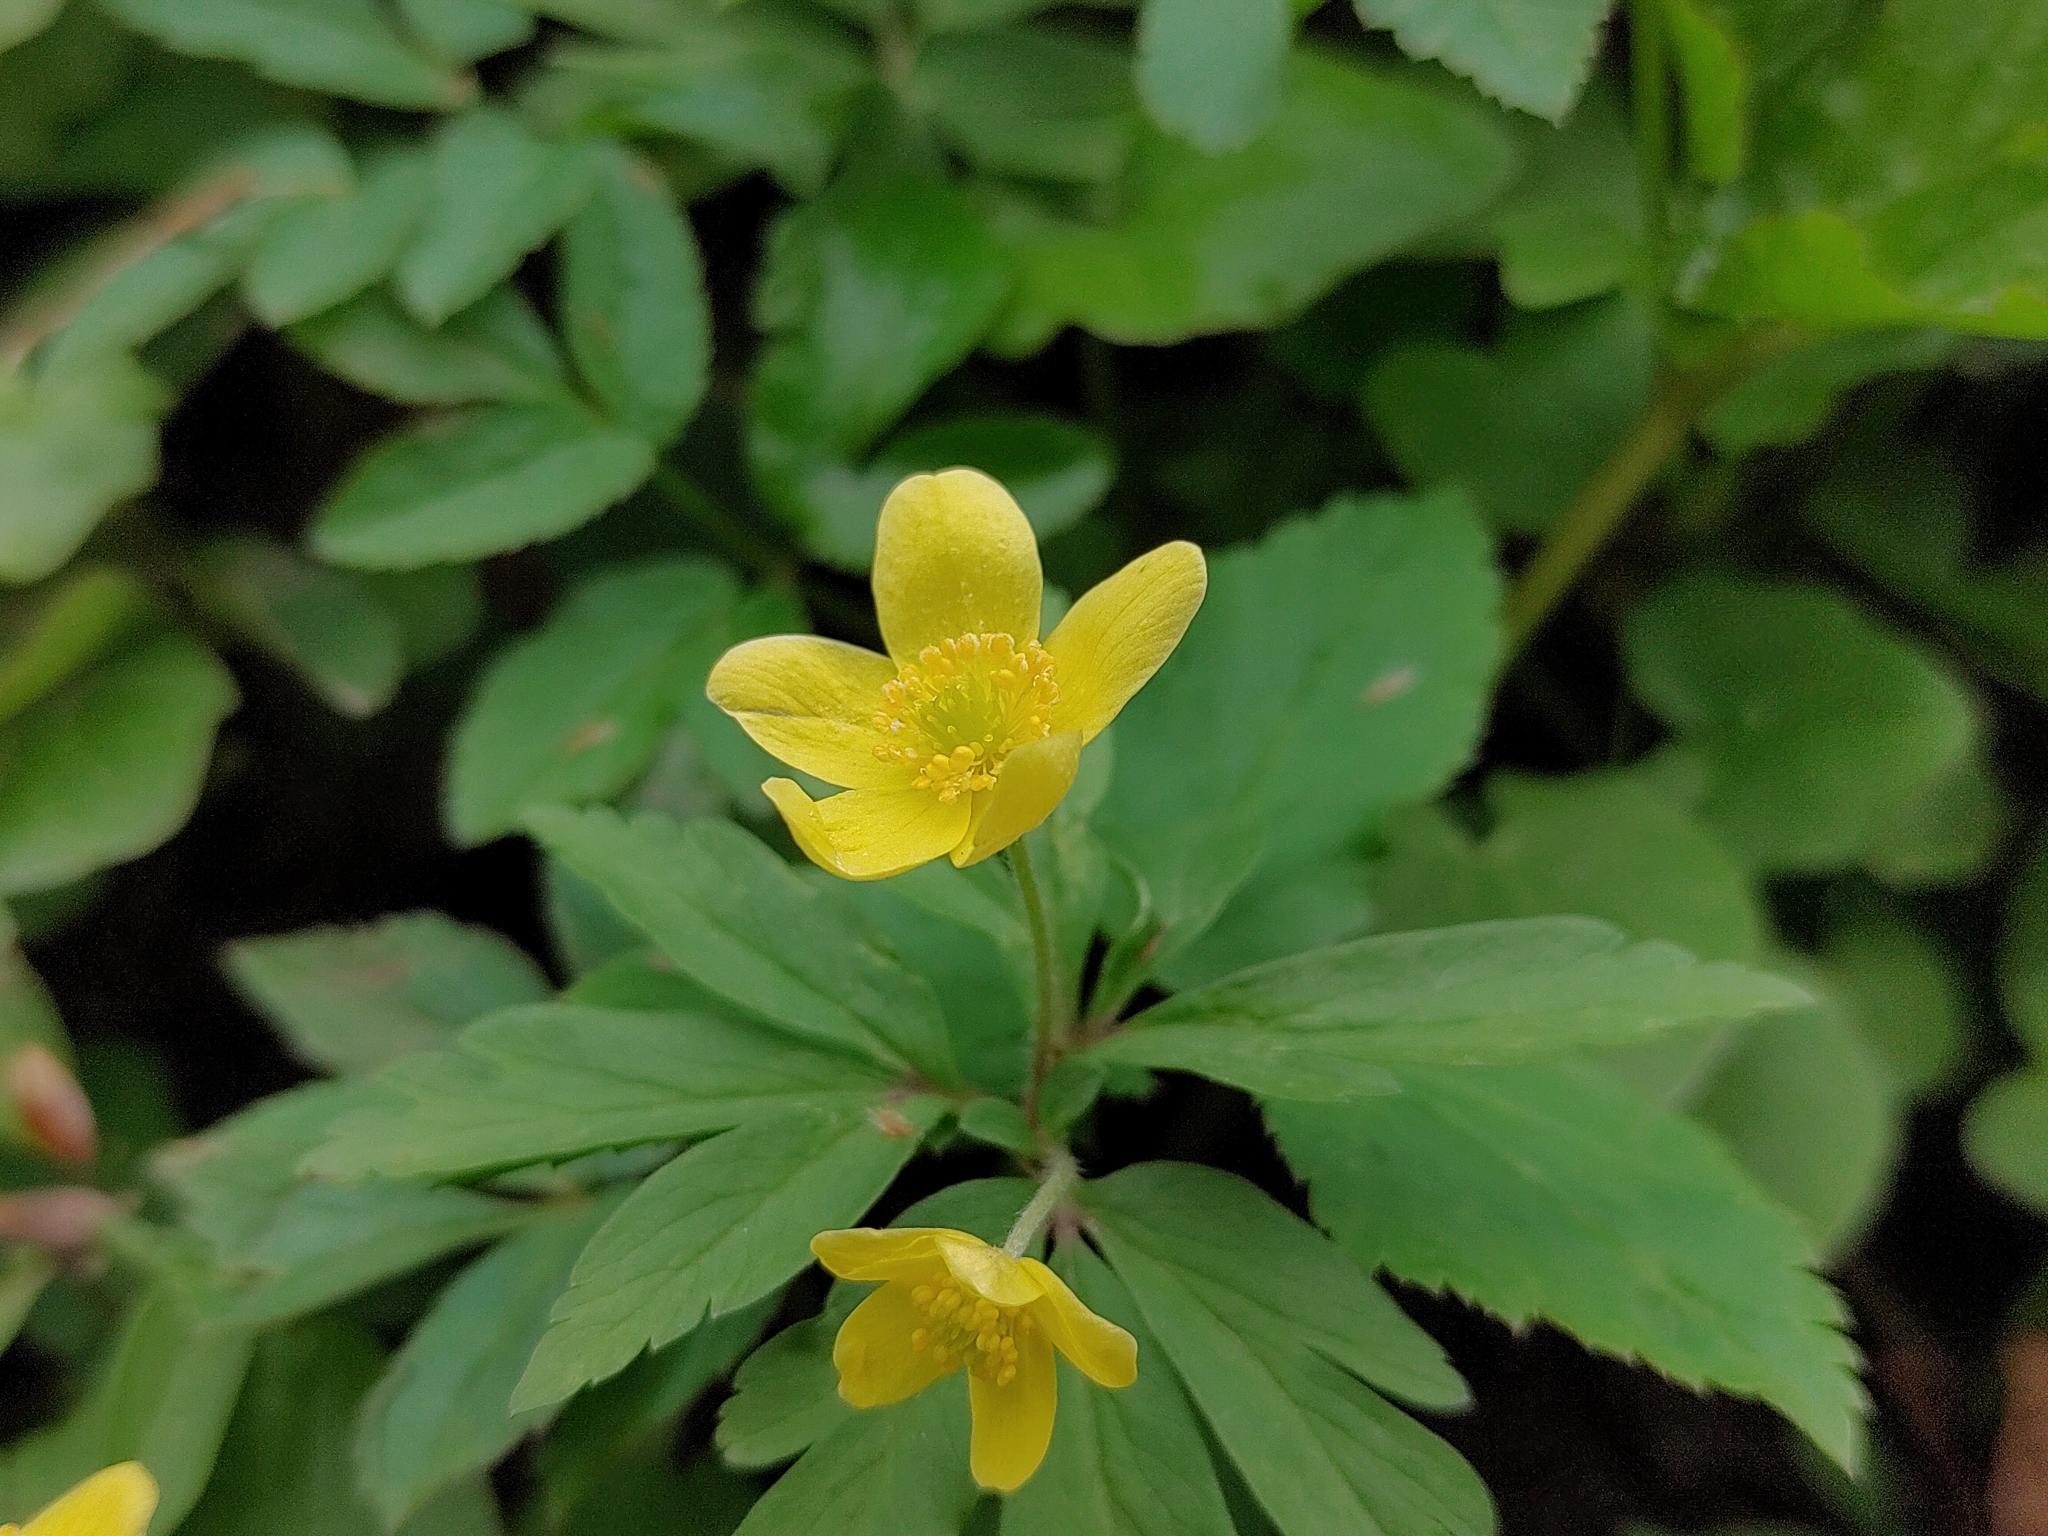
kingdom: Plantae
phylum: Tracheophyta
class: Magnoliopsida
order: Ranunculales
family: Ranunculaceae
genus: Anemone
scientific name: Anemone ranunculoides
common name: Yellow anemone
